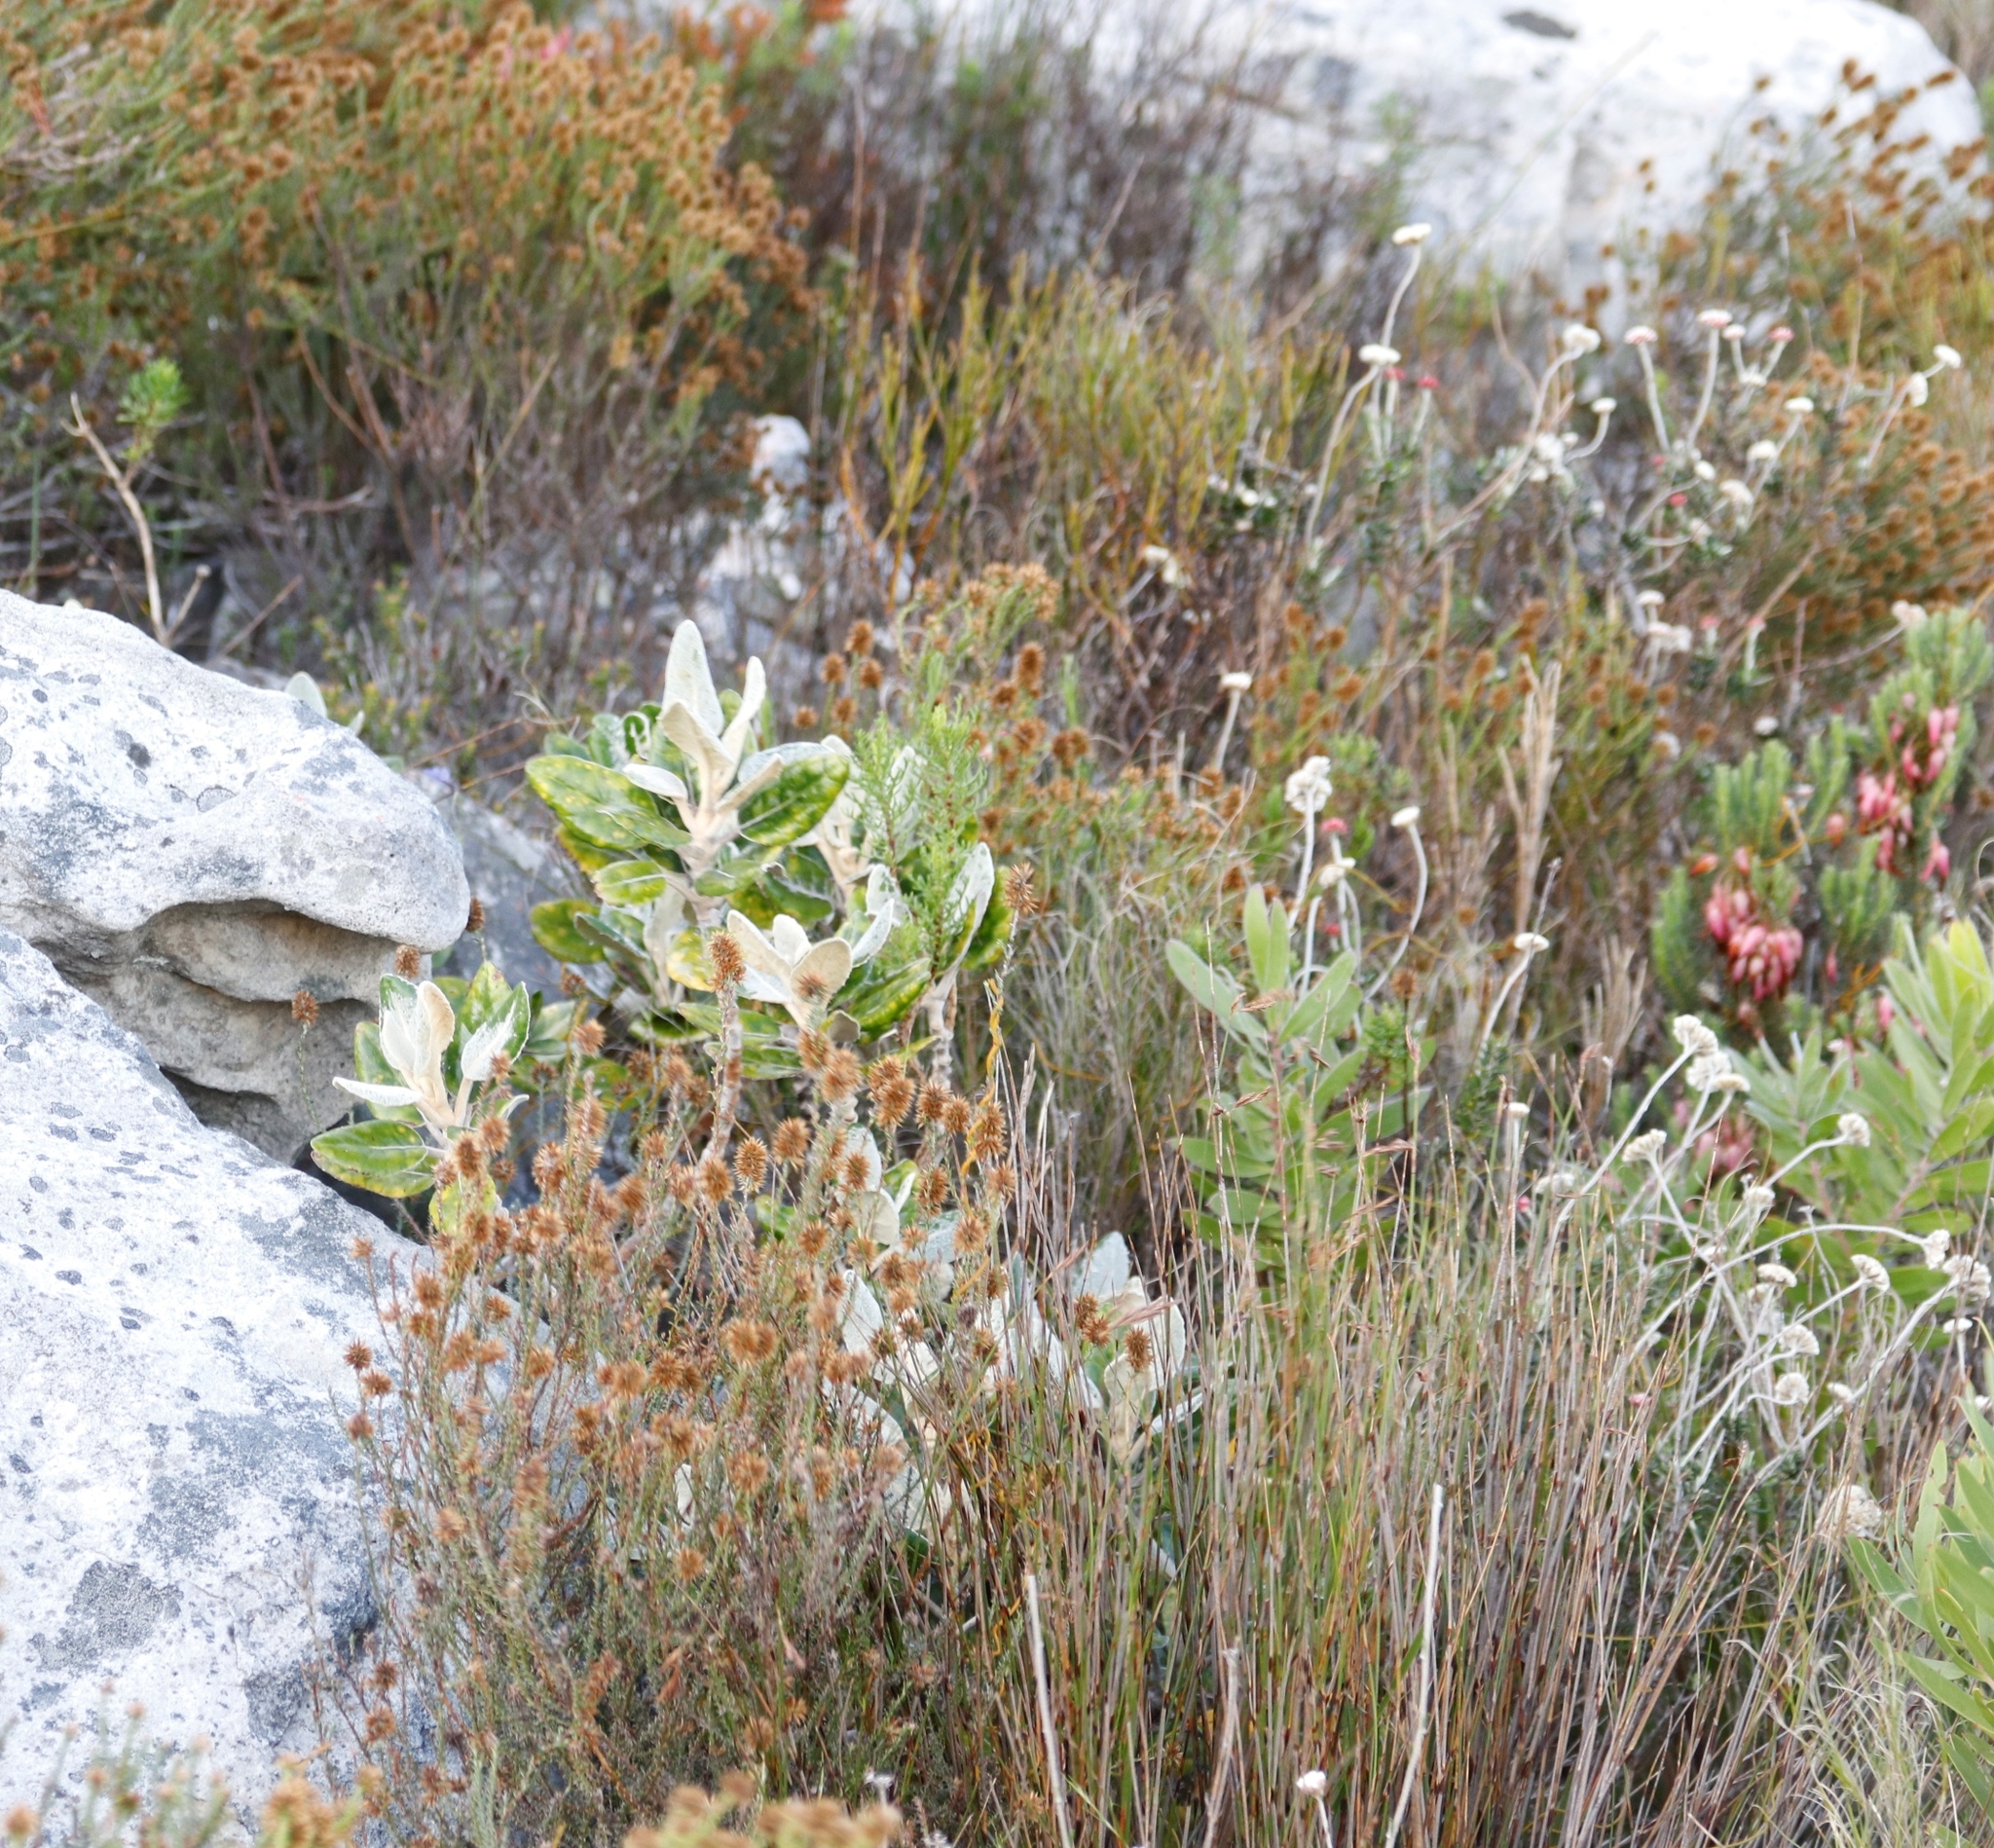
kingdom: Plantae
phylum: Tracheophyta
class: Magnoliopsida
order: Asterales
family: Asteraceae
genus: Capelio
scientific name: Capelio tabularis
